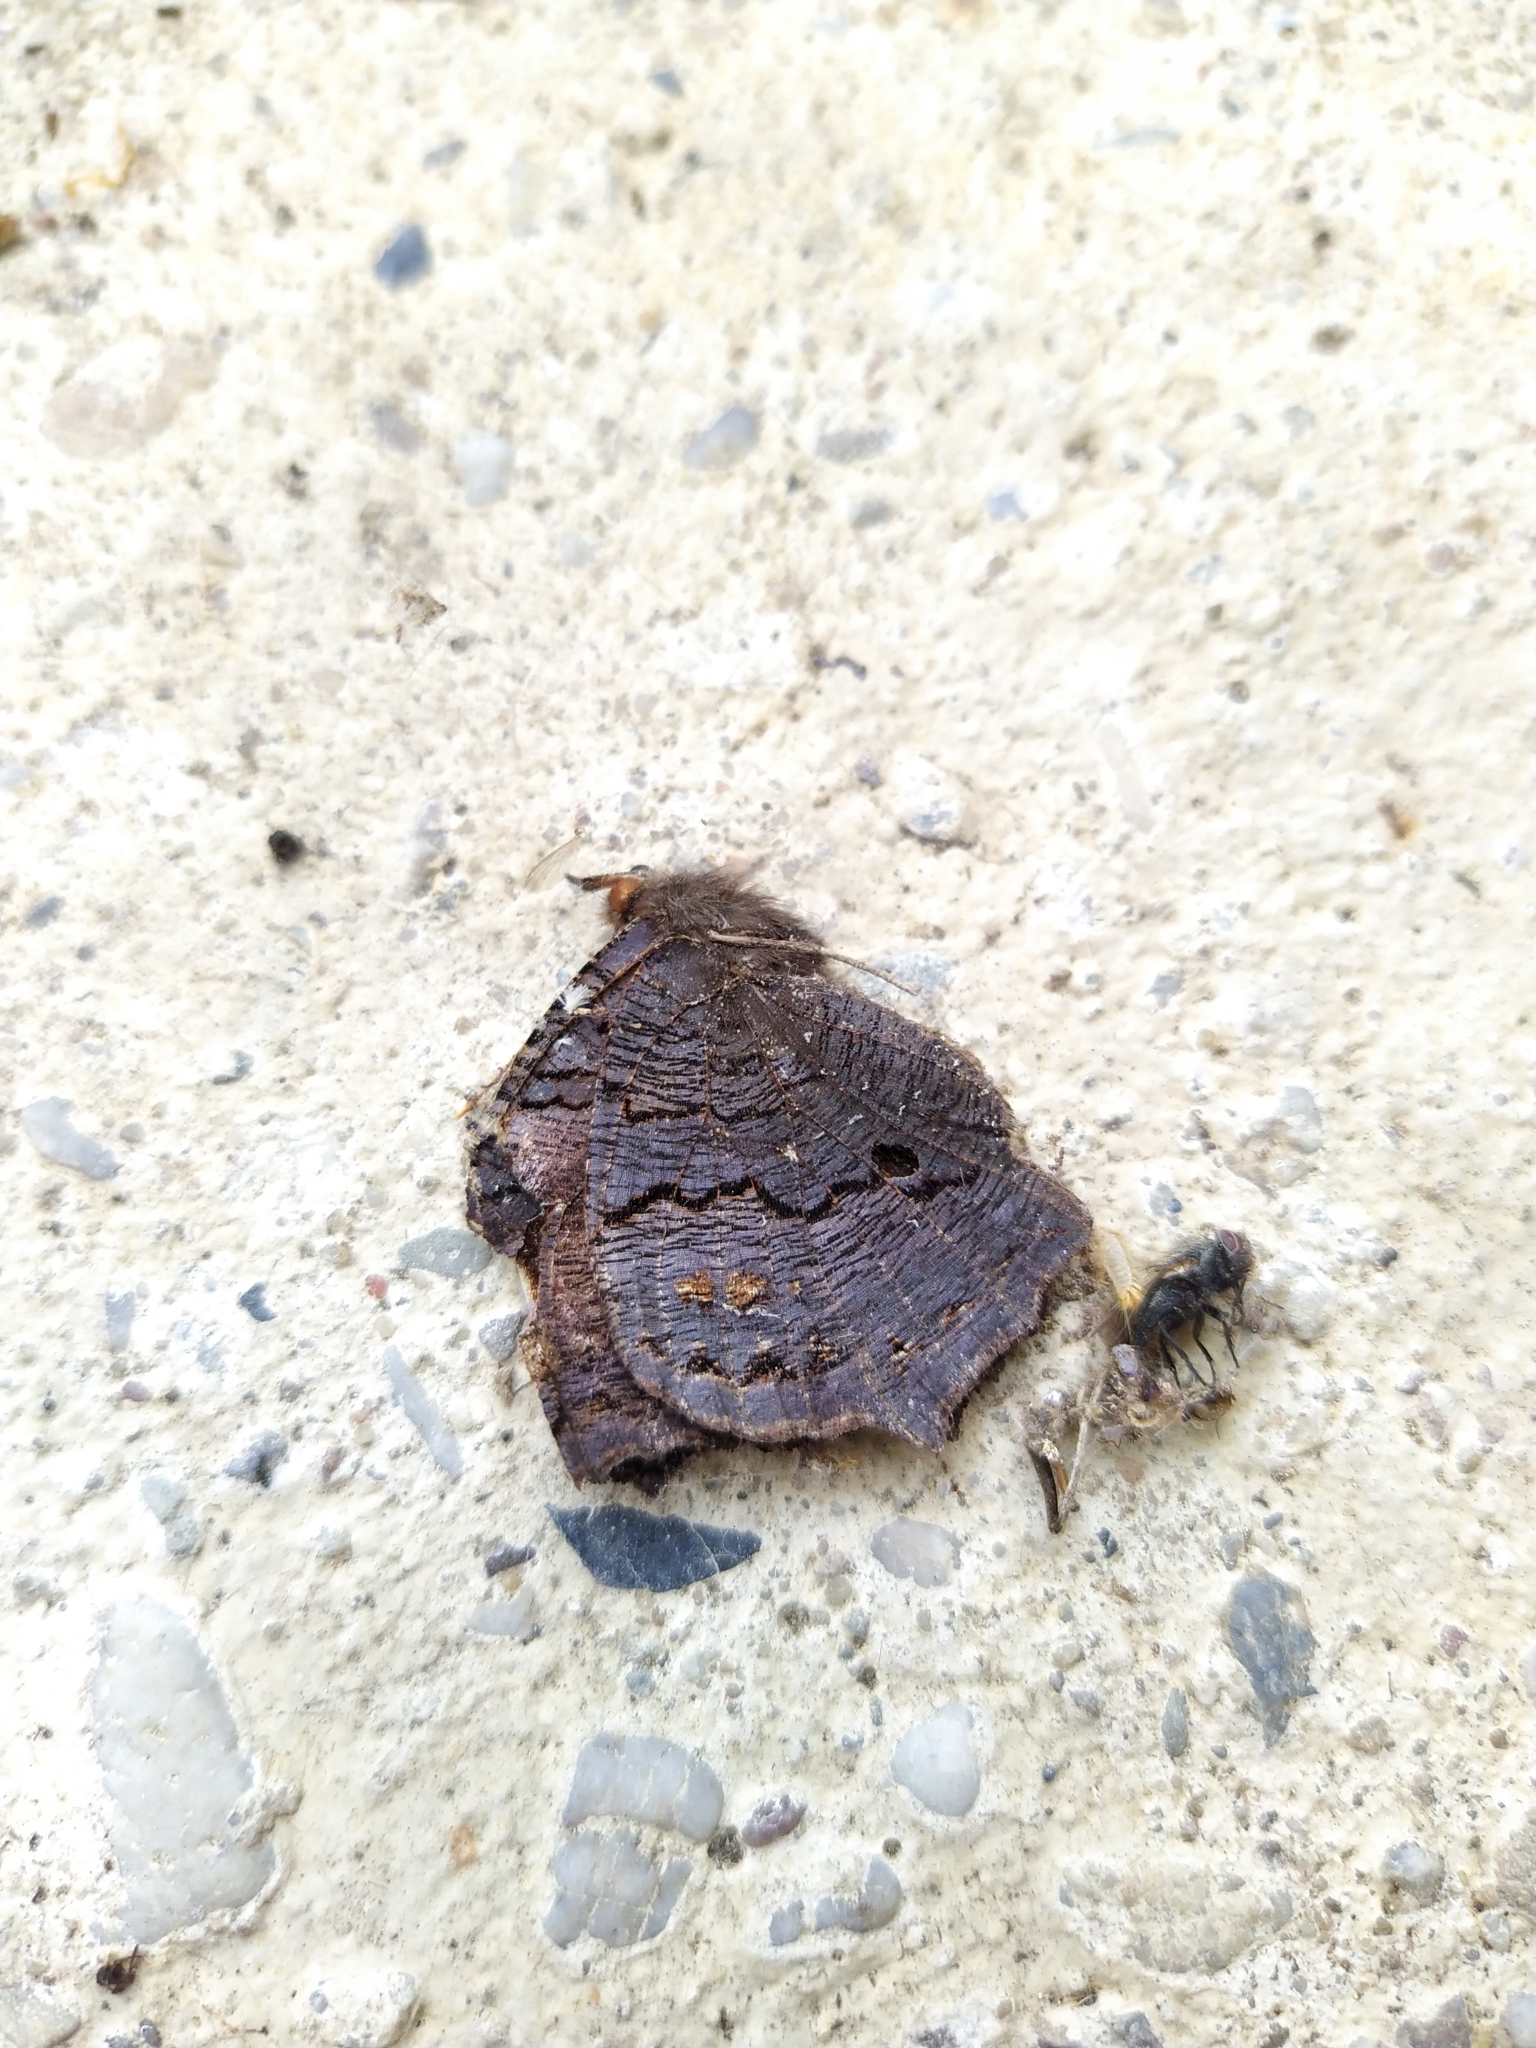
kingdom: Animalia
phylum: Arthropoda
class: Insecta
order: Lepidoptera
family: Nymphalidae
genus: Aglais
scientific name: Aglais io
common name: Peacock
